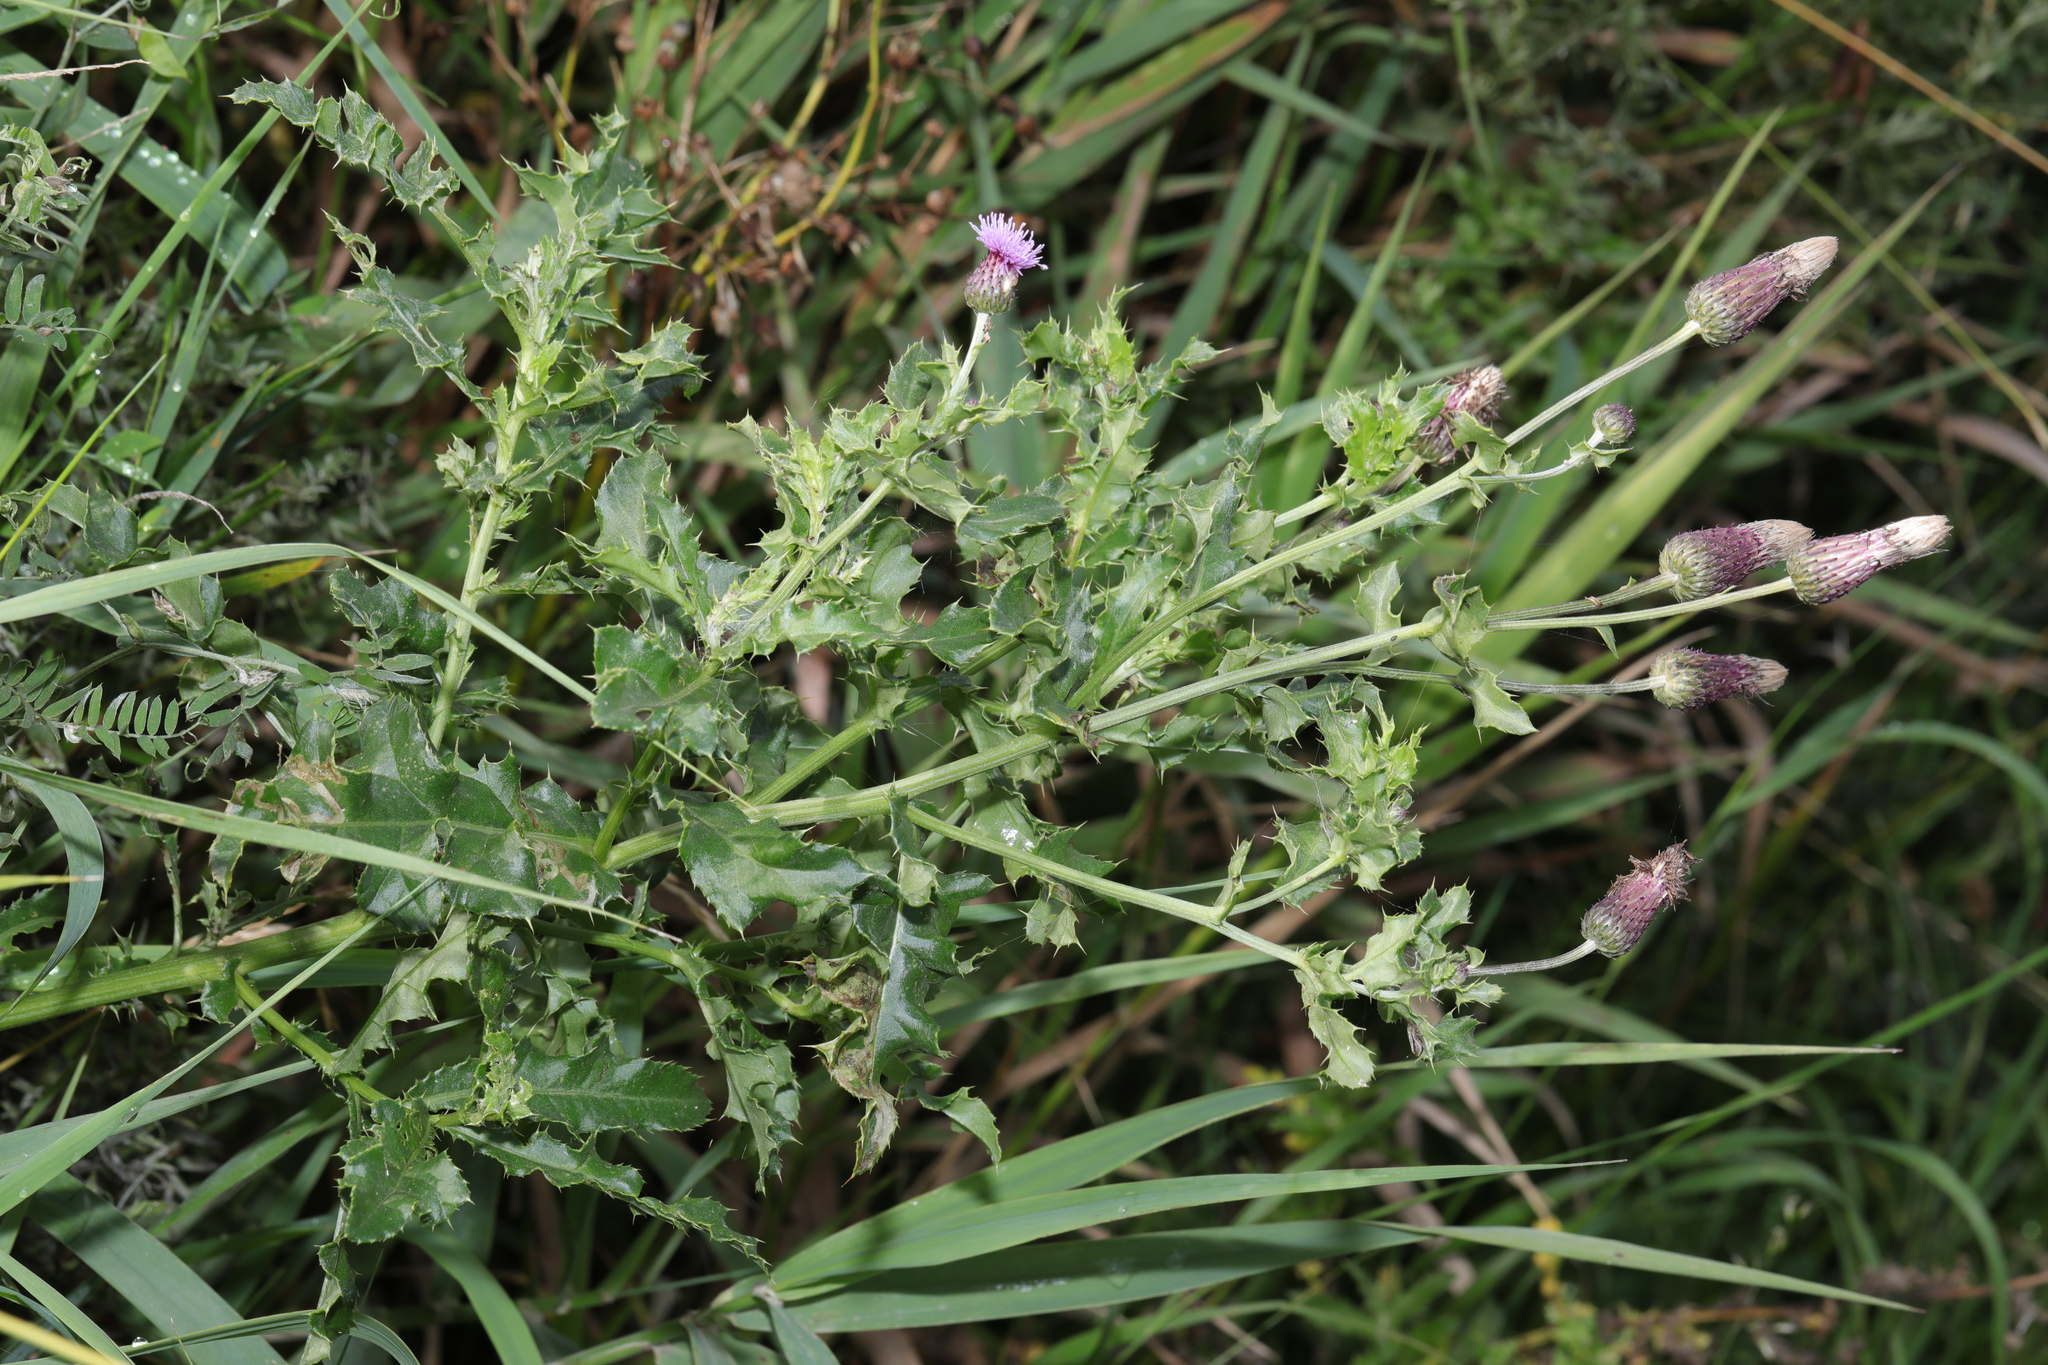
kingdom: Plantae
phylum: Tracheophyta
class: Magnoliopsida
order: Asterales
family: Asteraceae
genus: Cirsium
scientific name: Cirsium arvense
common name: Creeping thistle
